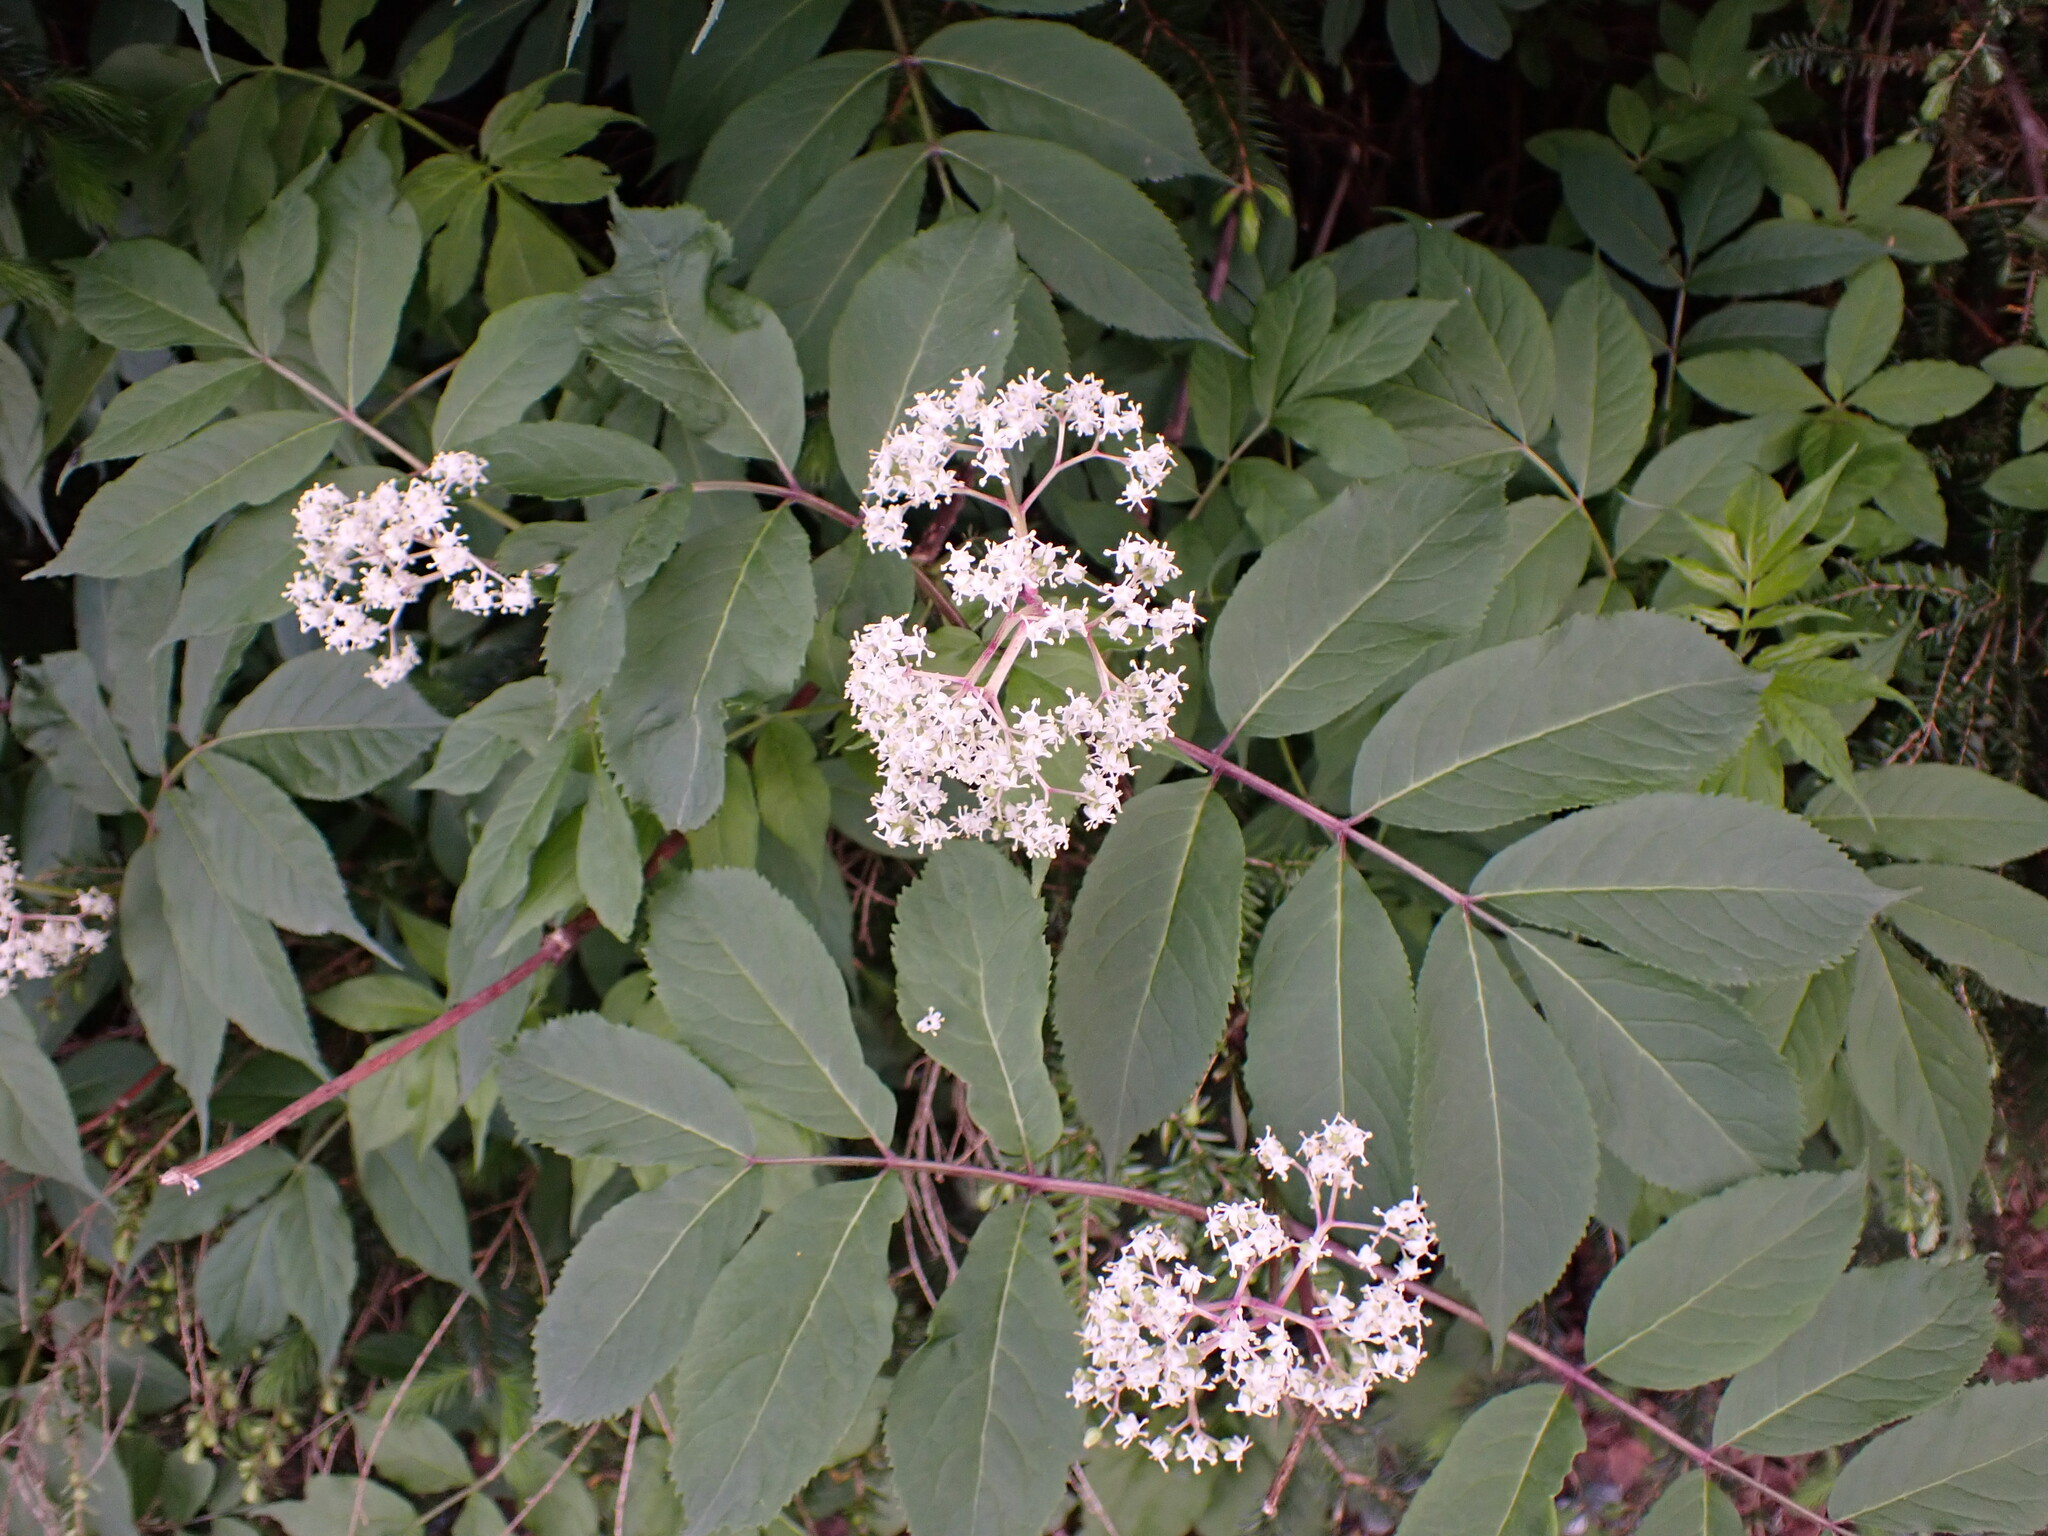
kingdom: Plantae
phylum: Tracheophyta
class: Magnoliopsida
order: Dipsacales
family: Viburnaceae
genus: Sambucus
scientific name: Sambucus racemosa
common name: Red-berried elder
